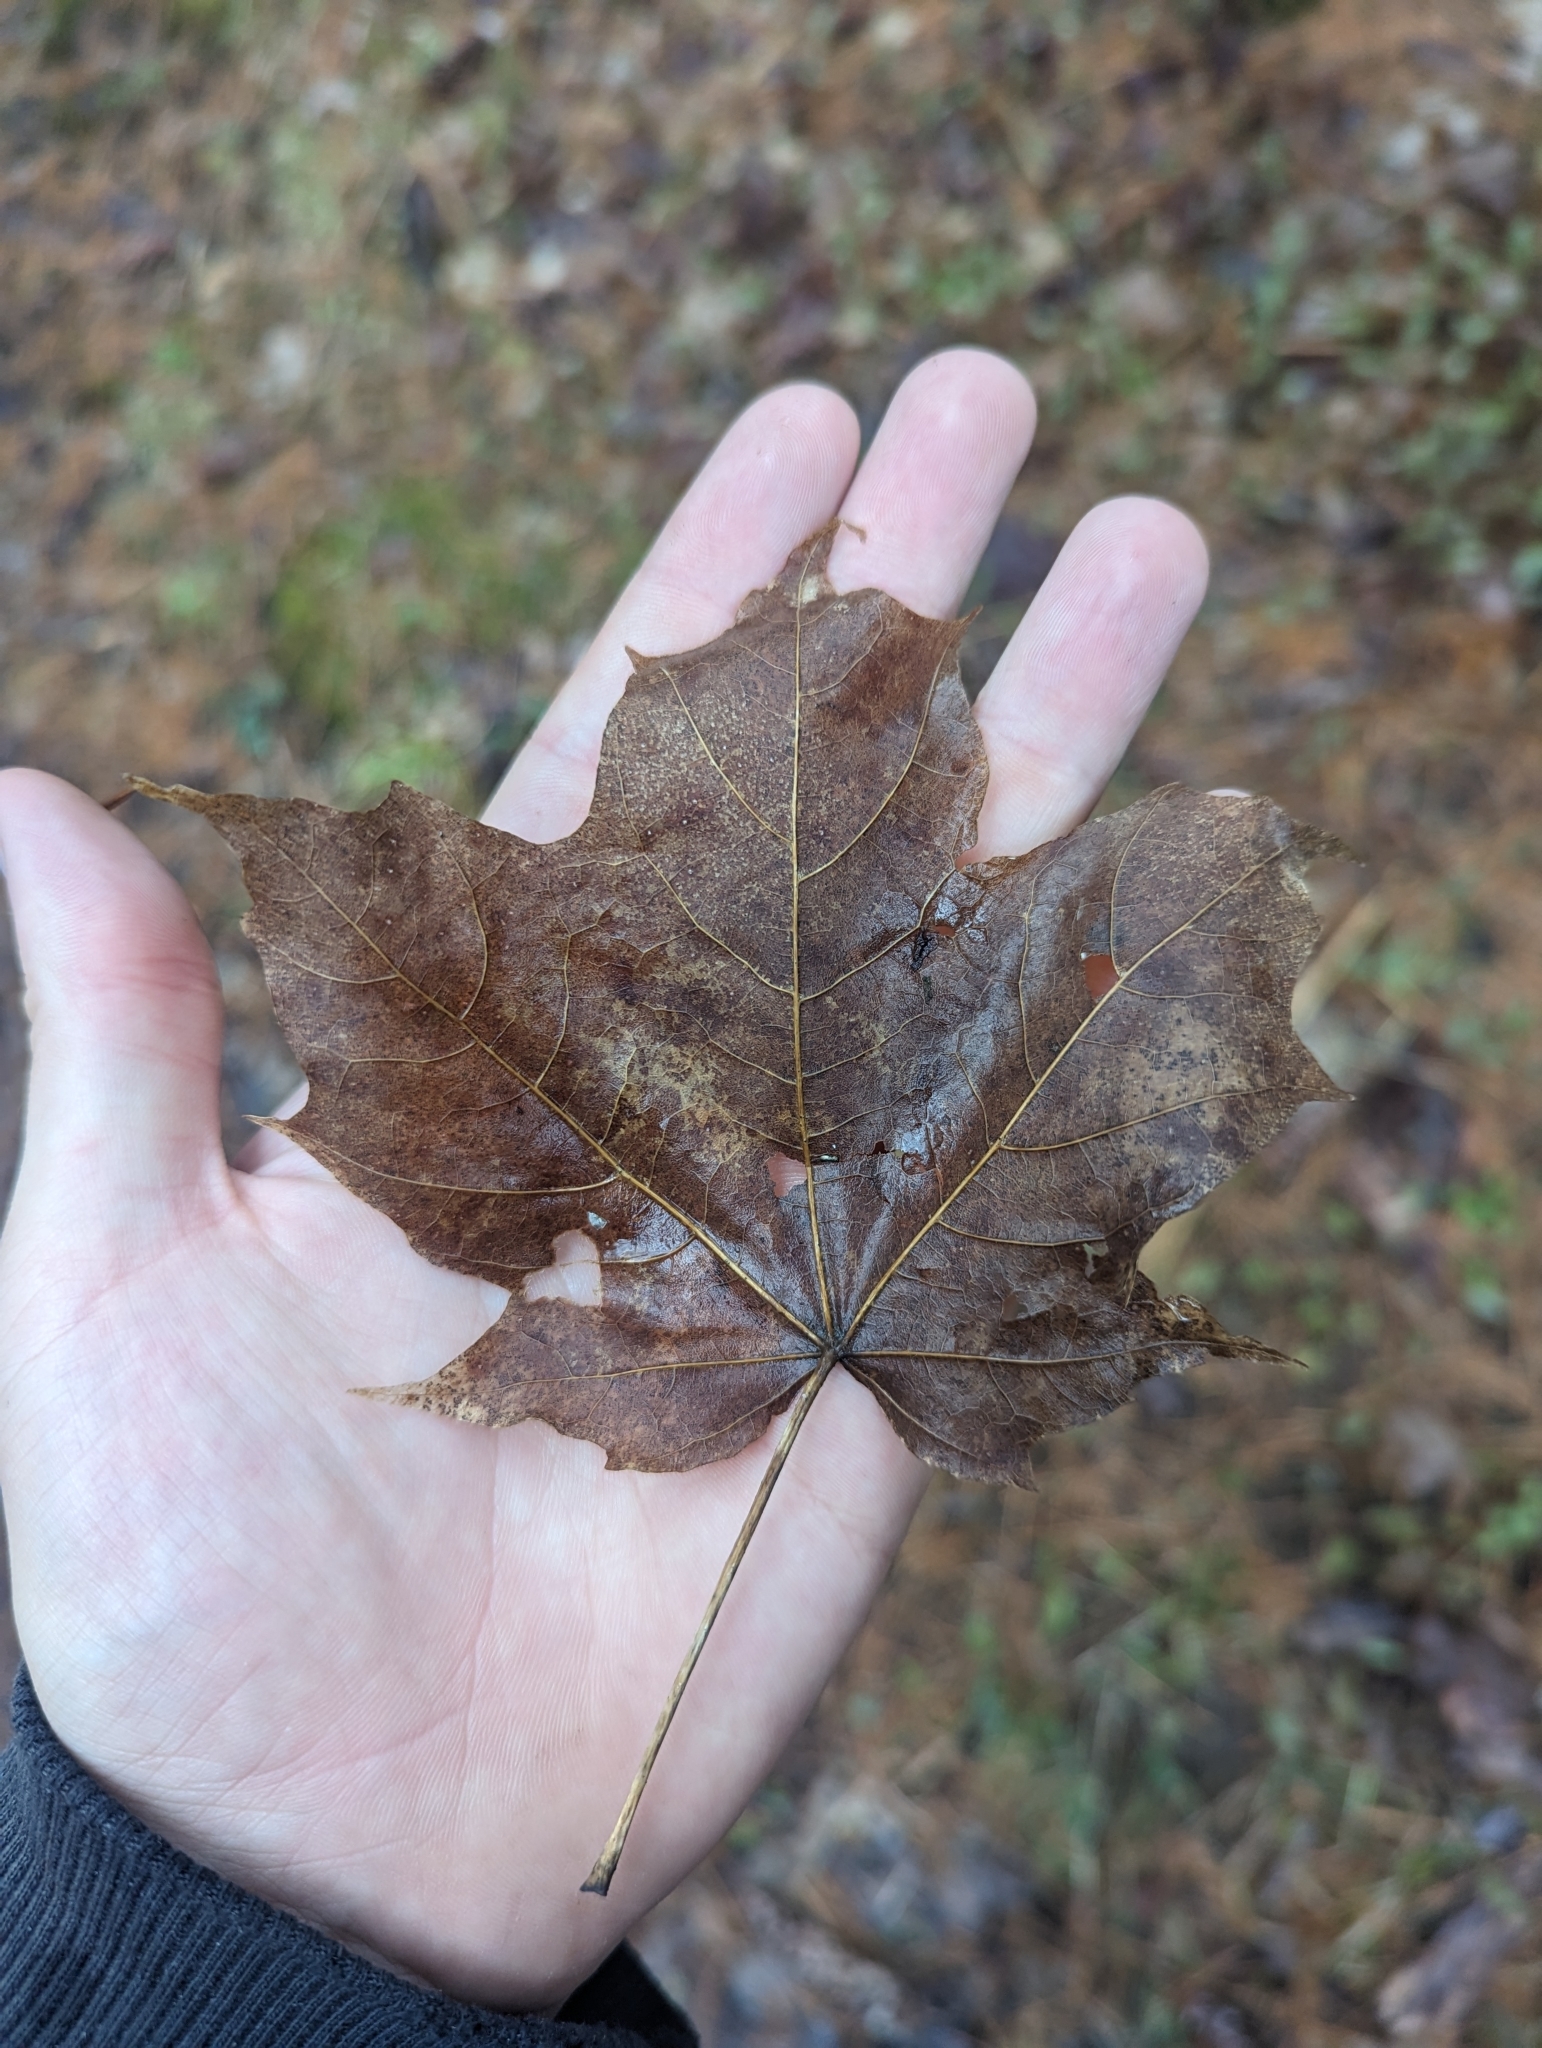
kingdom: Plantae
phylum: Tracheophyta
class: Magnoliopsida
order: Sapindales
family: Sapindaceae
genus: Acer
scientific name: Acer saccharum
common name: Sugar maple
